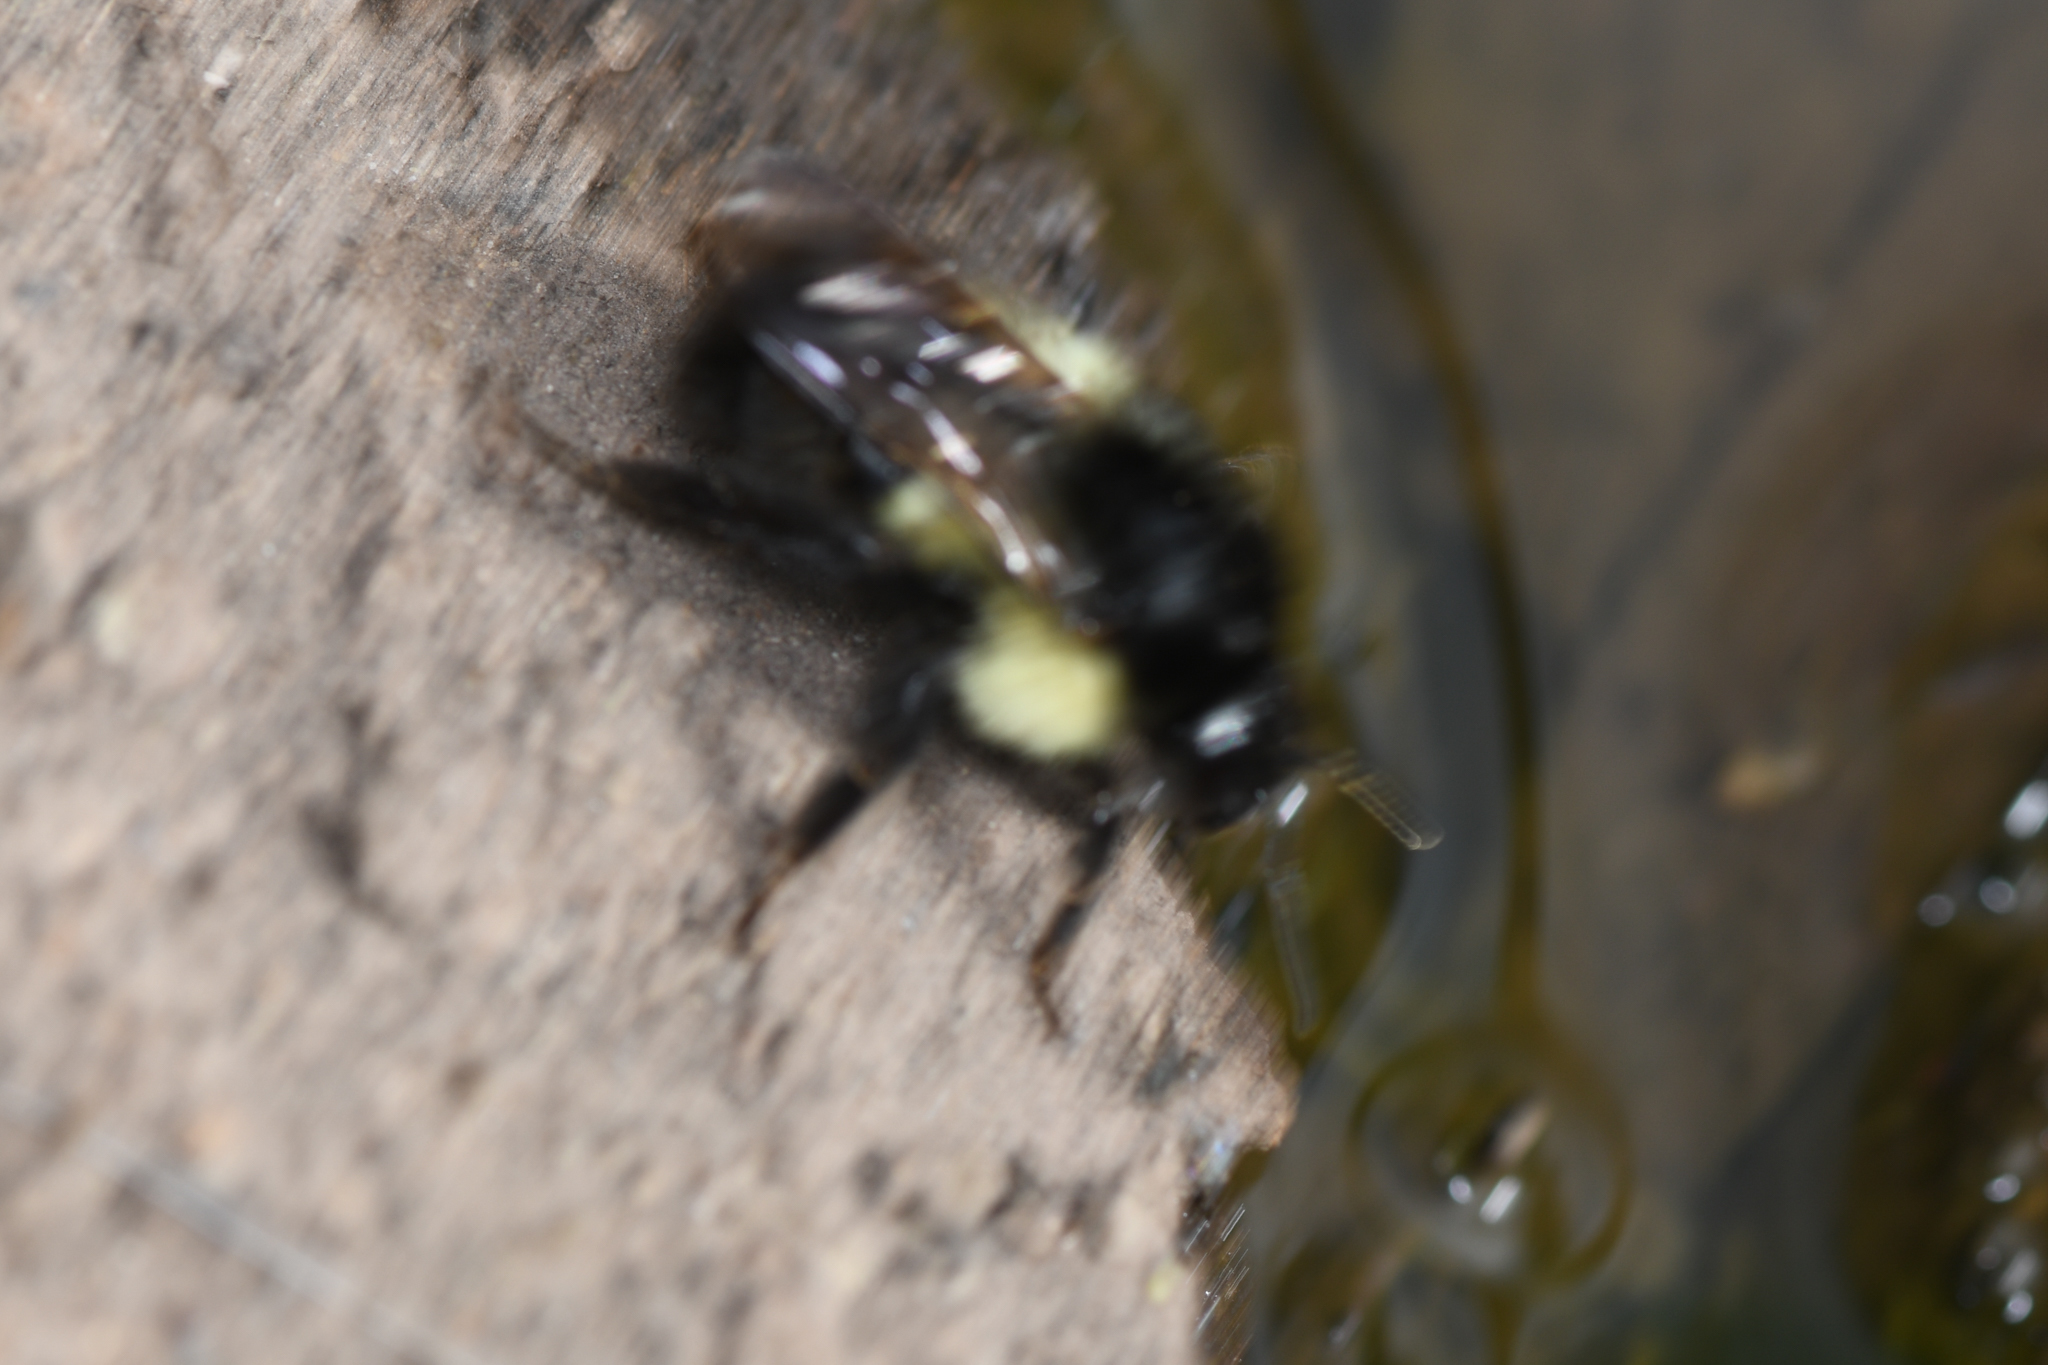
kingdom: Animalia
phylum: Arthropoda
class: Insecta
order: Hymenoptera
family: Apidae
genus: Bombus
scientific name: Bombus ephippiatus
